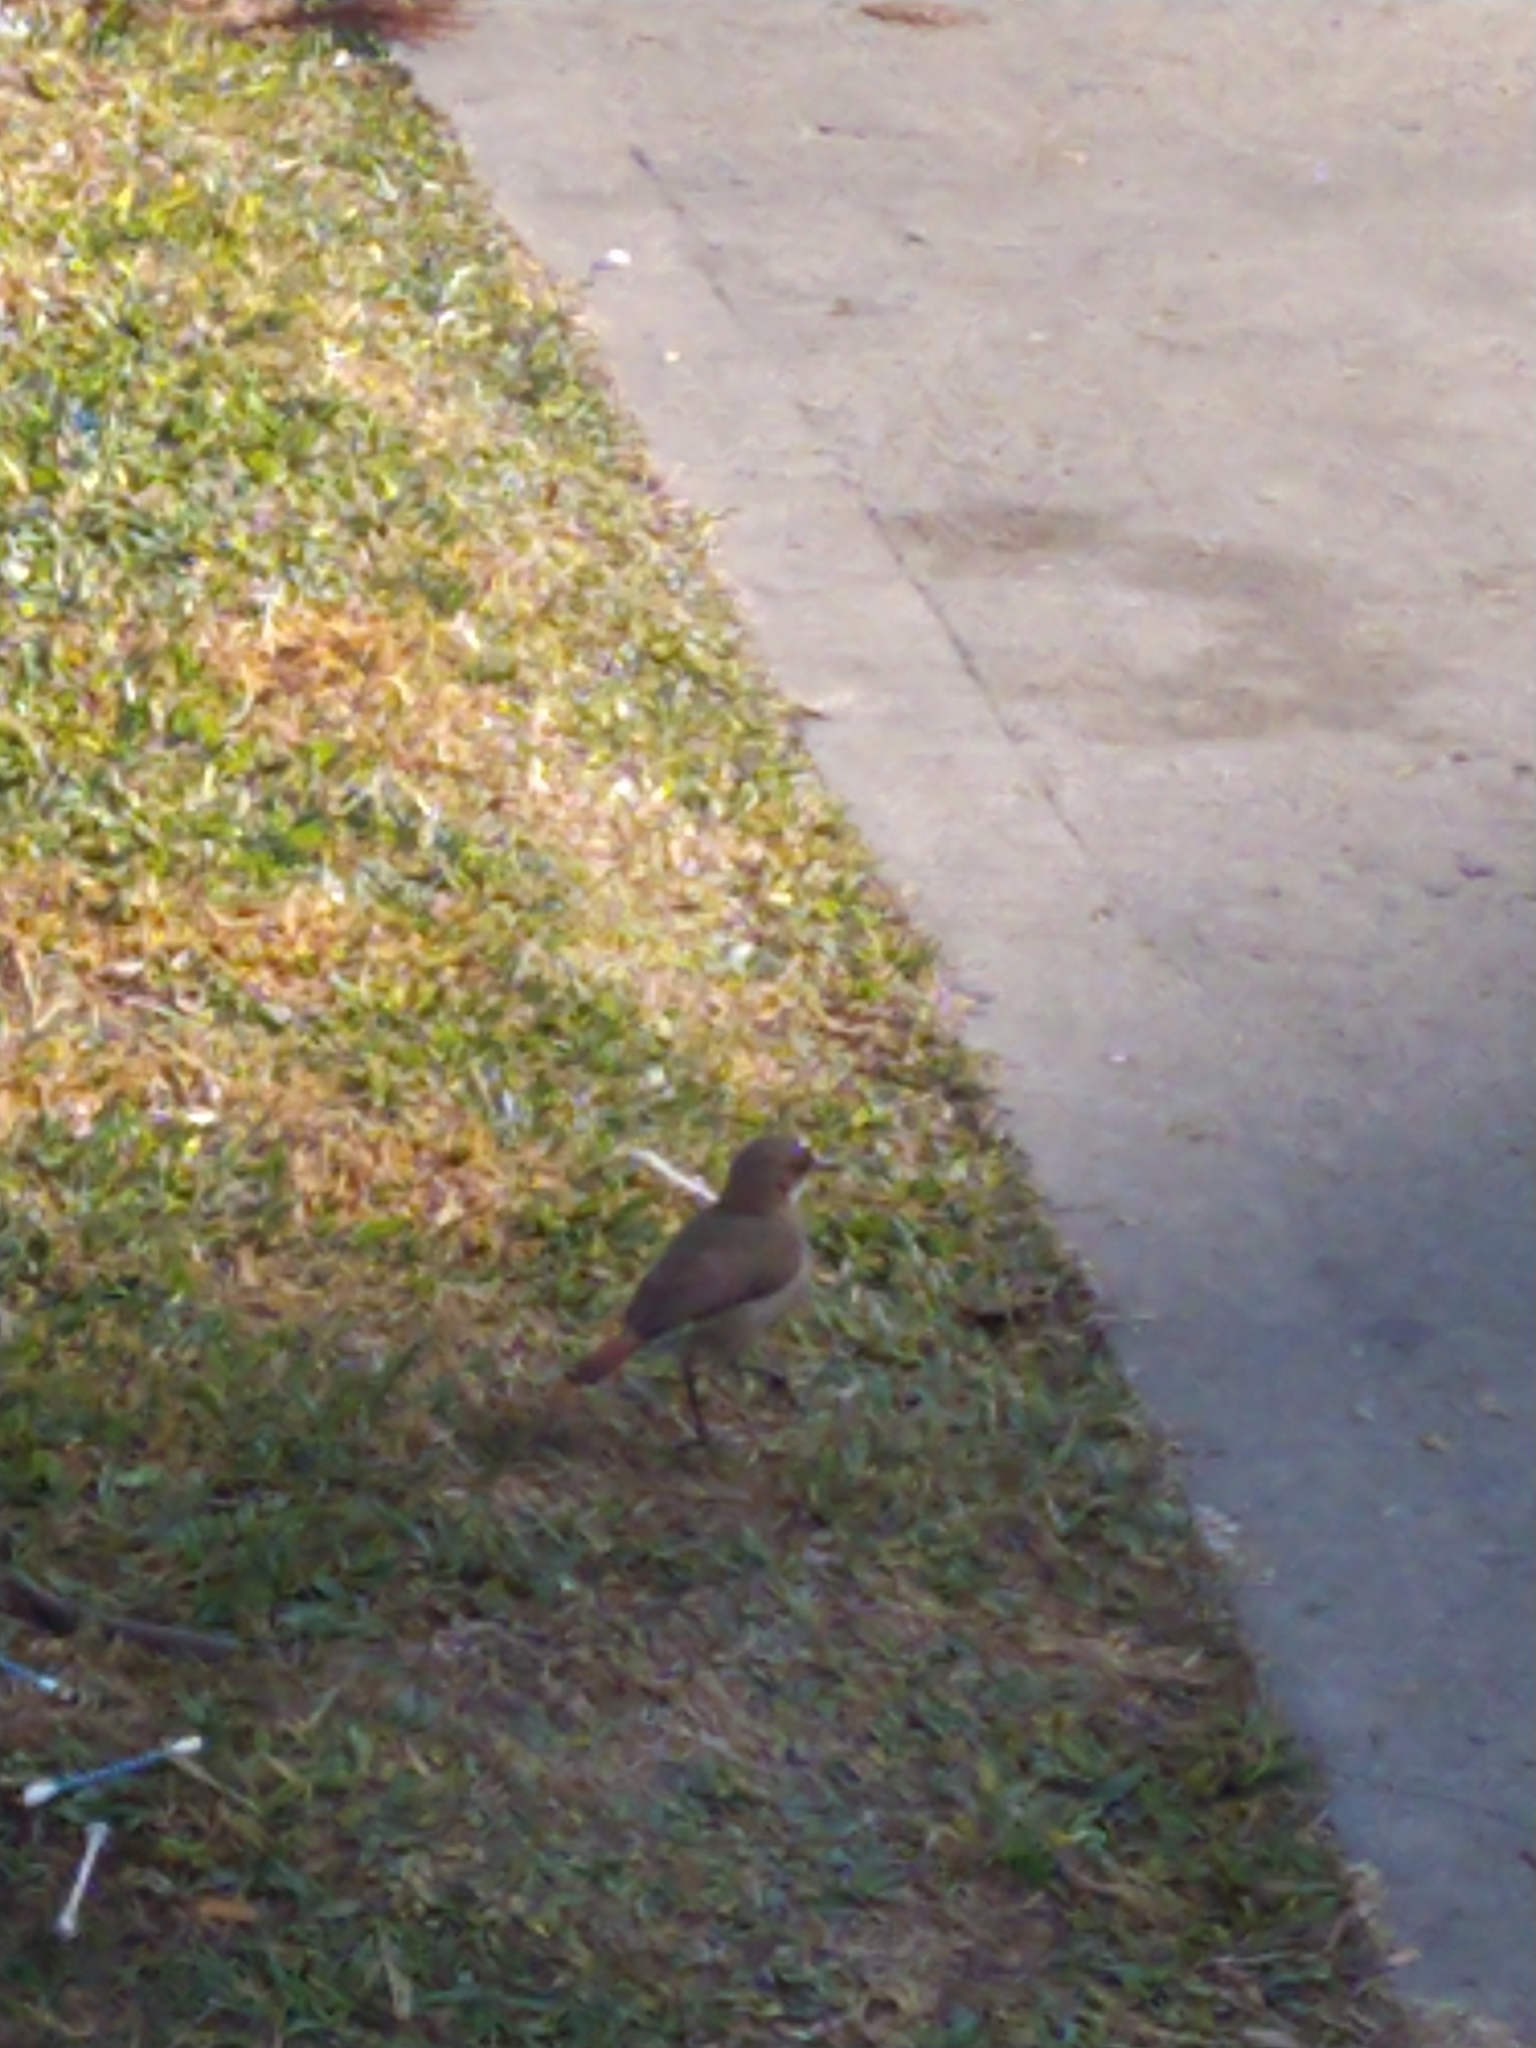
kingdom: Animalia
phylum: Chordata
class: Aves
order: Passeriformes
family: Furnariidae
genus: Furnarius
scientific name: Furnarius rufus
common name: Rufous hornero
